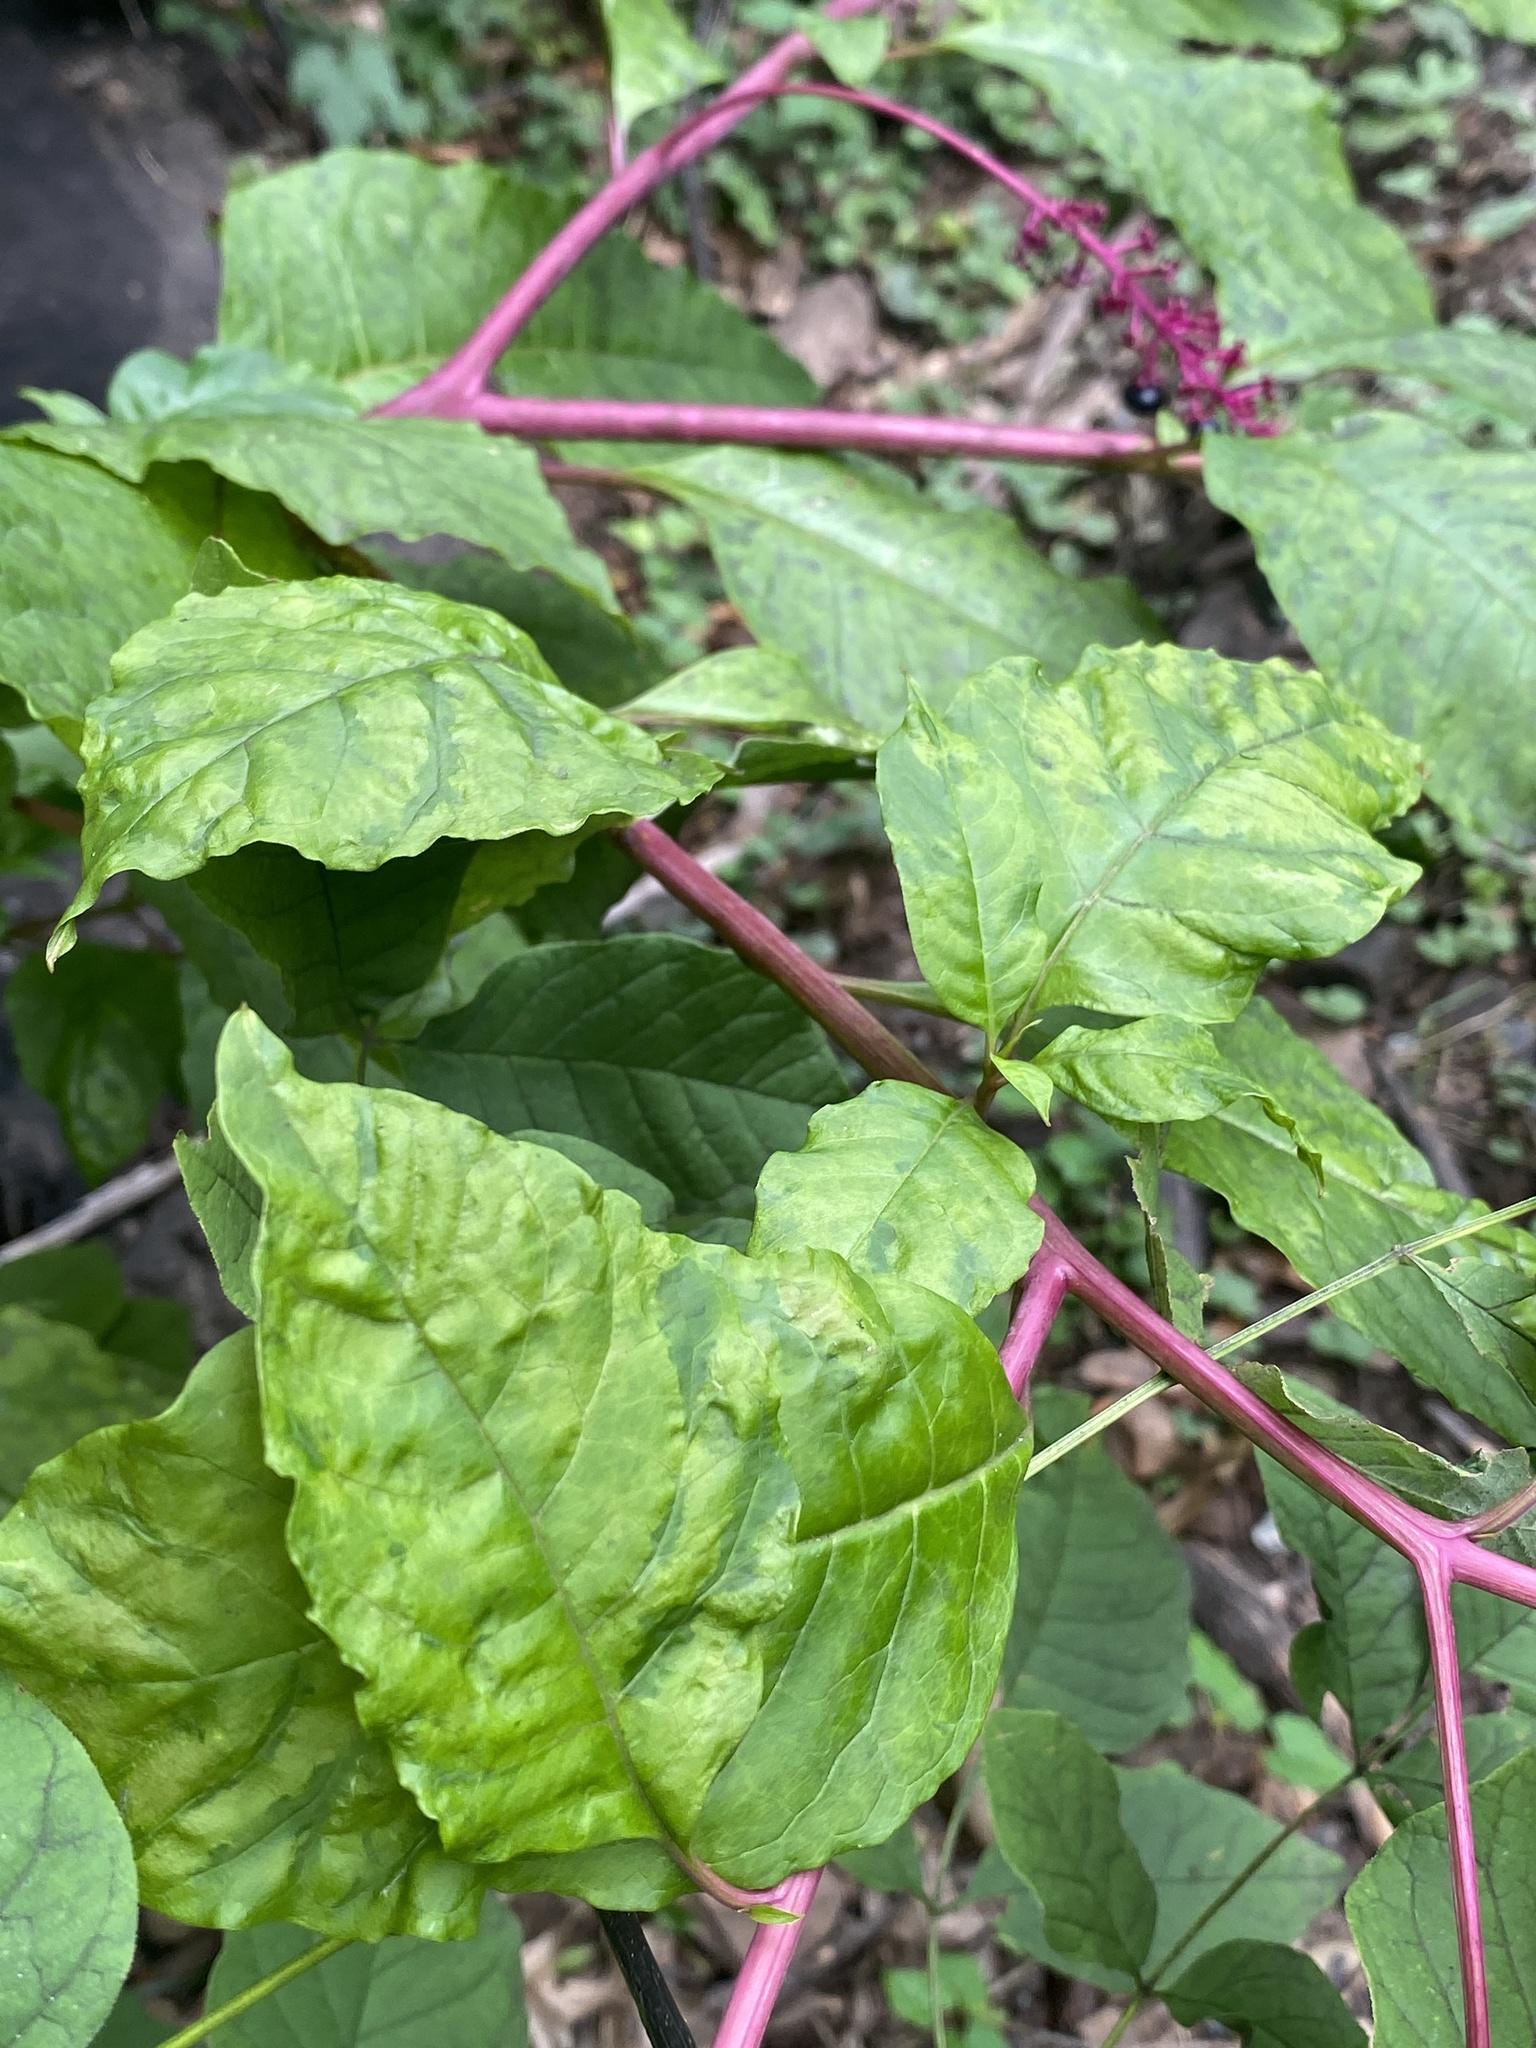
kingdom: Viruses
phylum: Pisuviricota
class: Stelpaviricetes
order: Patatavirales
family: Potyviridae
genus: Potyvirus
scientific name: Potyvirus Pokeweed mosaic virus
